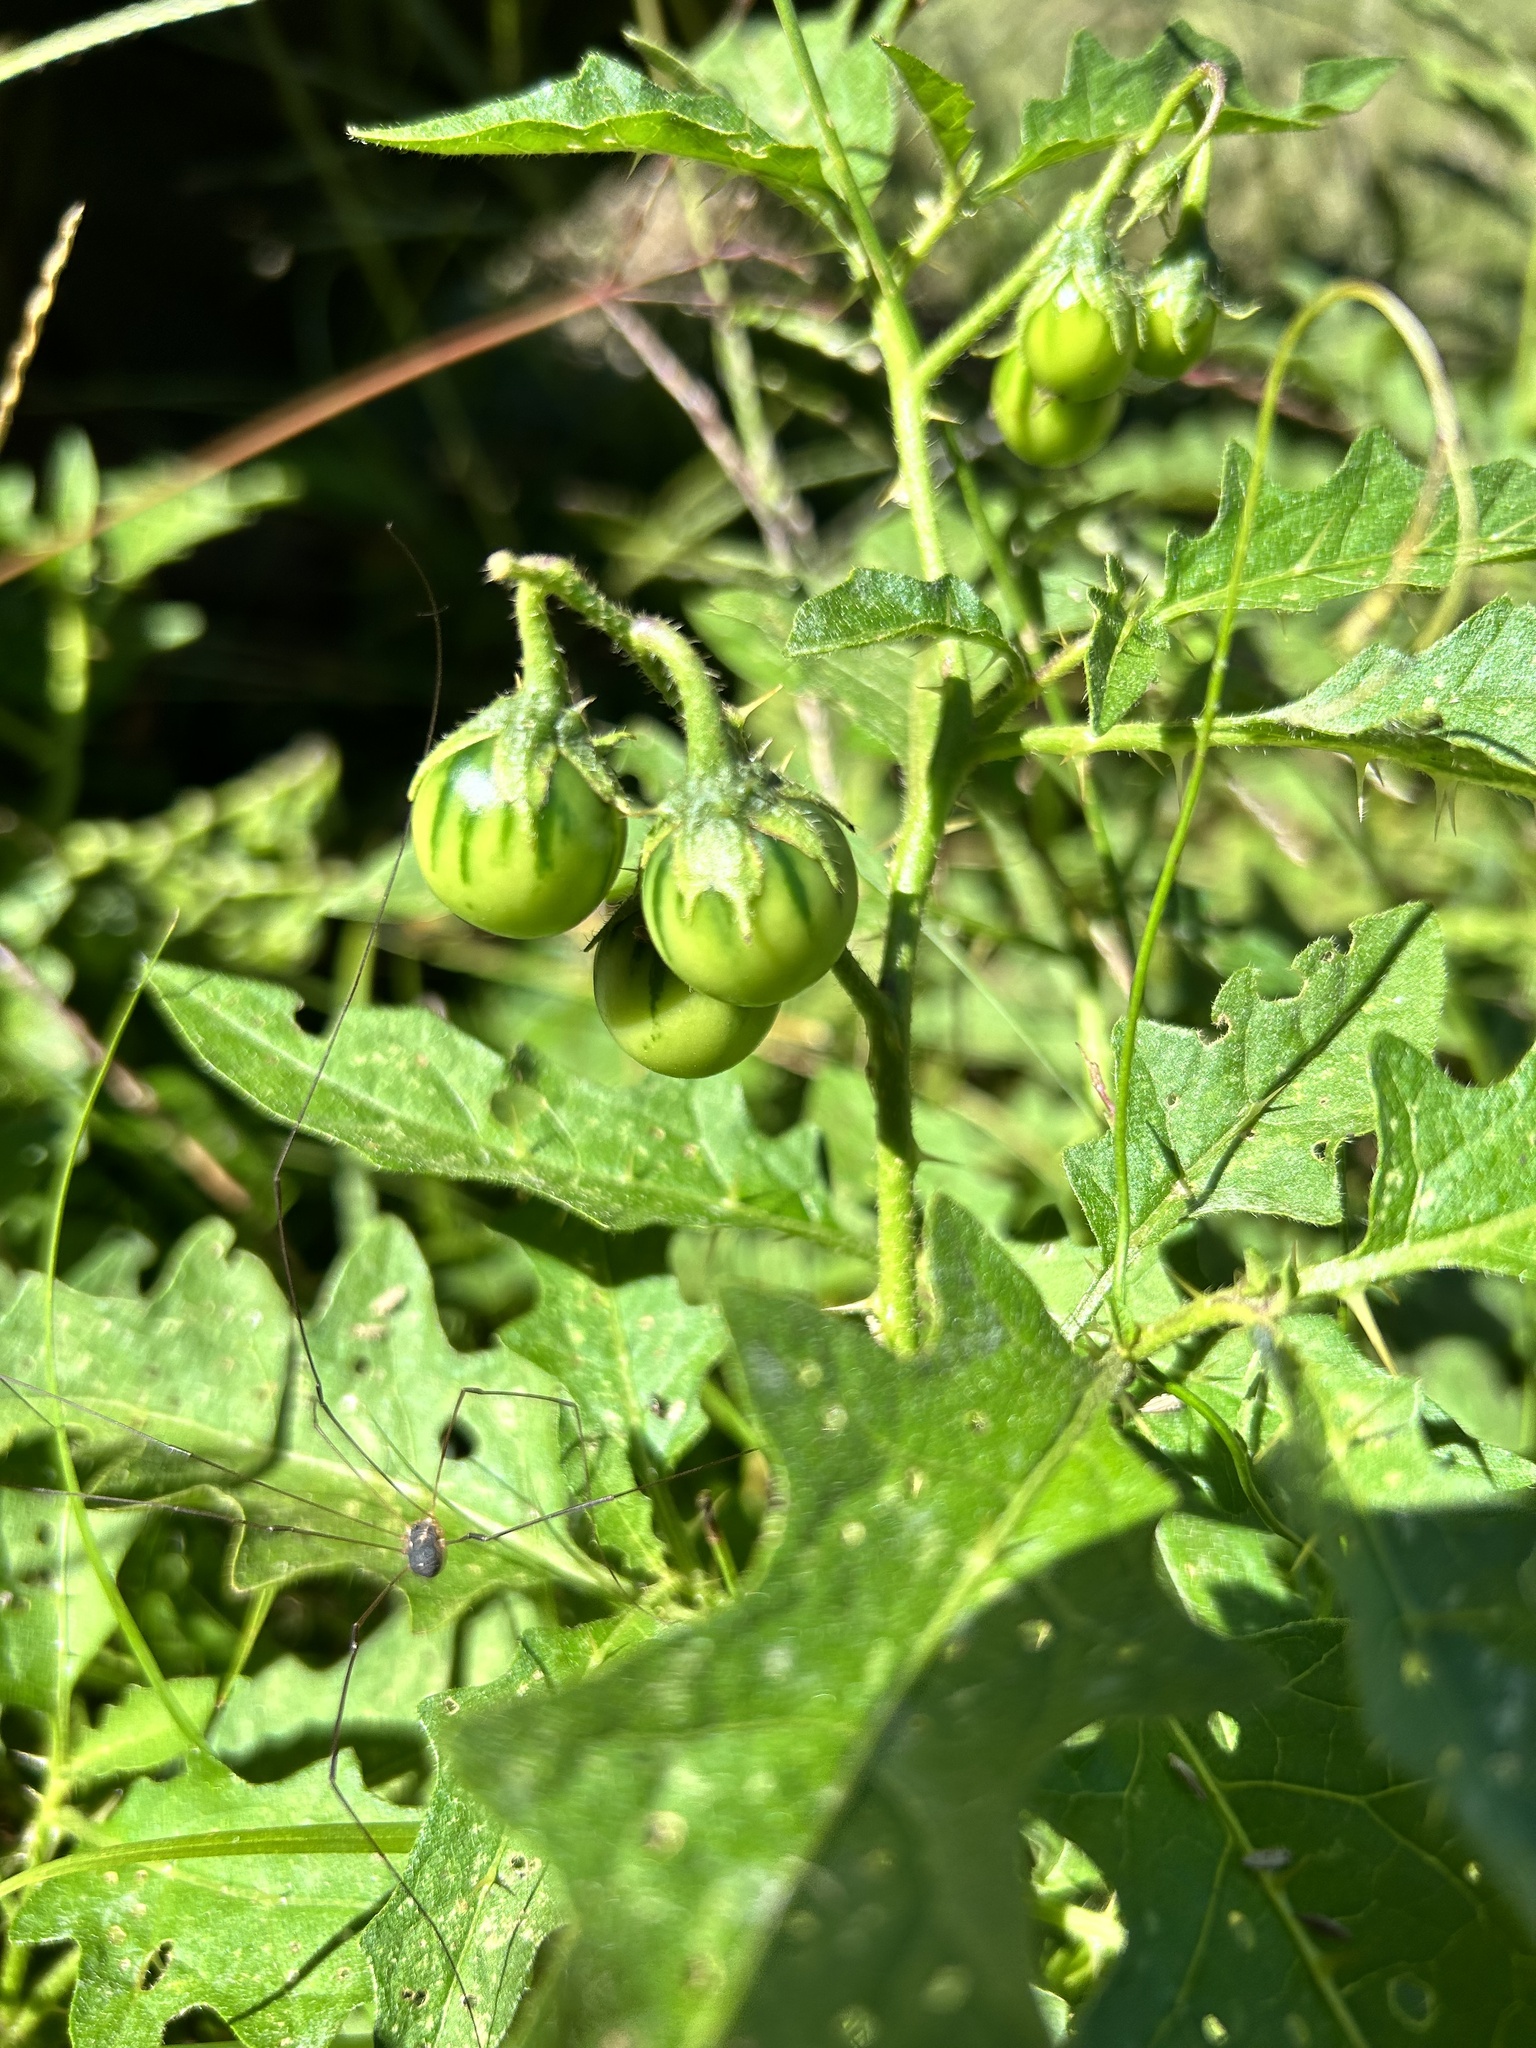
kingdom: Plantae
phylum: Tracheophyta
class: Magnoliopsida
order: Solanales
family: Solanaceae
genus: Solanum
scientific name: Solanum carolinense
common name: Horse-nettle
